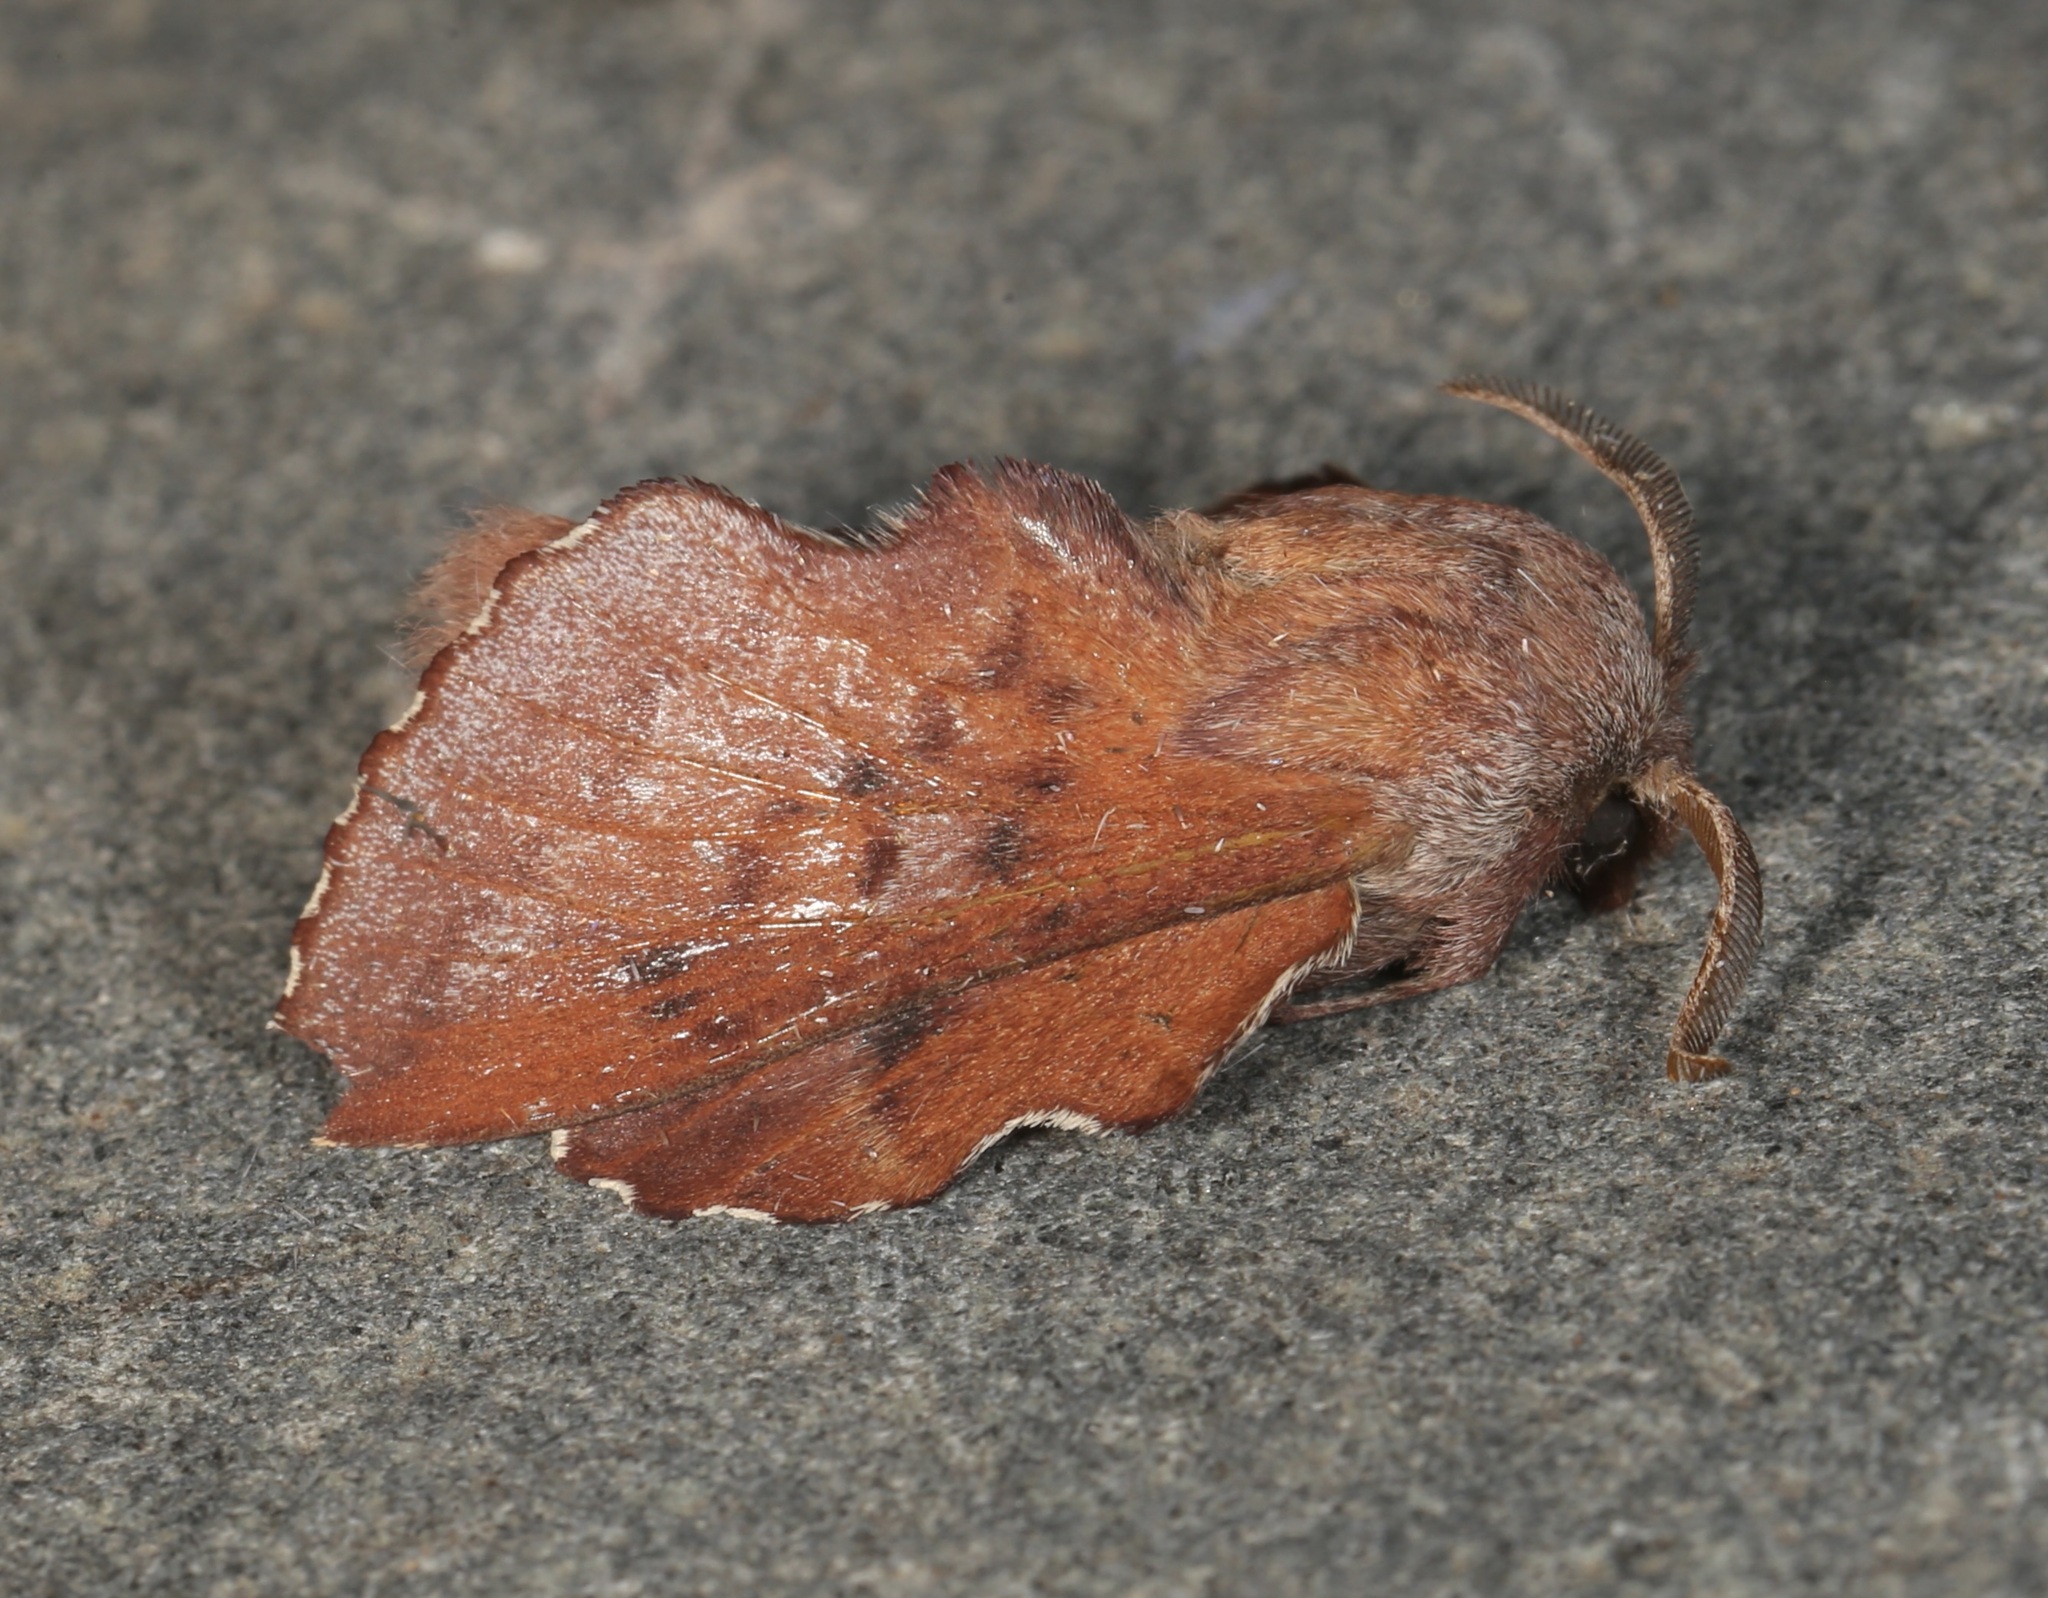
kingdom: Animalia
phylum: Arthropoda
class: Insecta
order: Lepidoptera
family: Lasiocampidae
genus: Phyllodesma
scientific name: Phyllodesma americana
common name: American lappet moth
